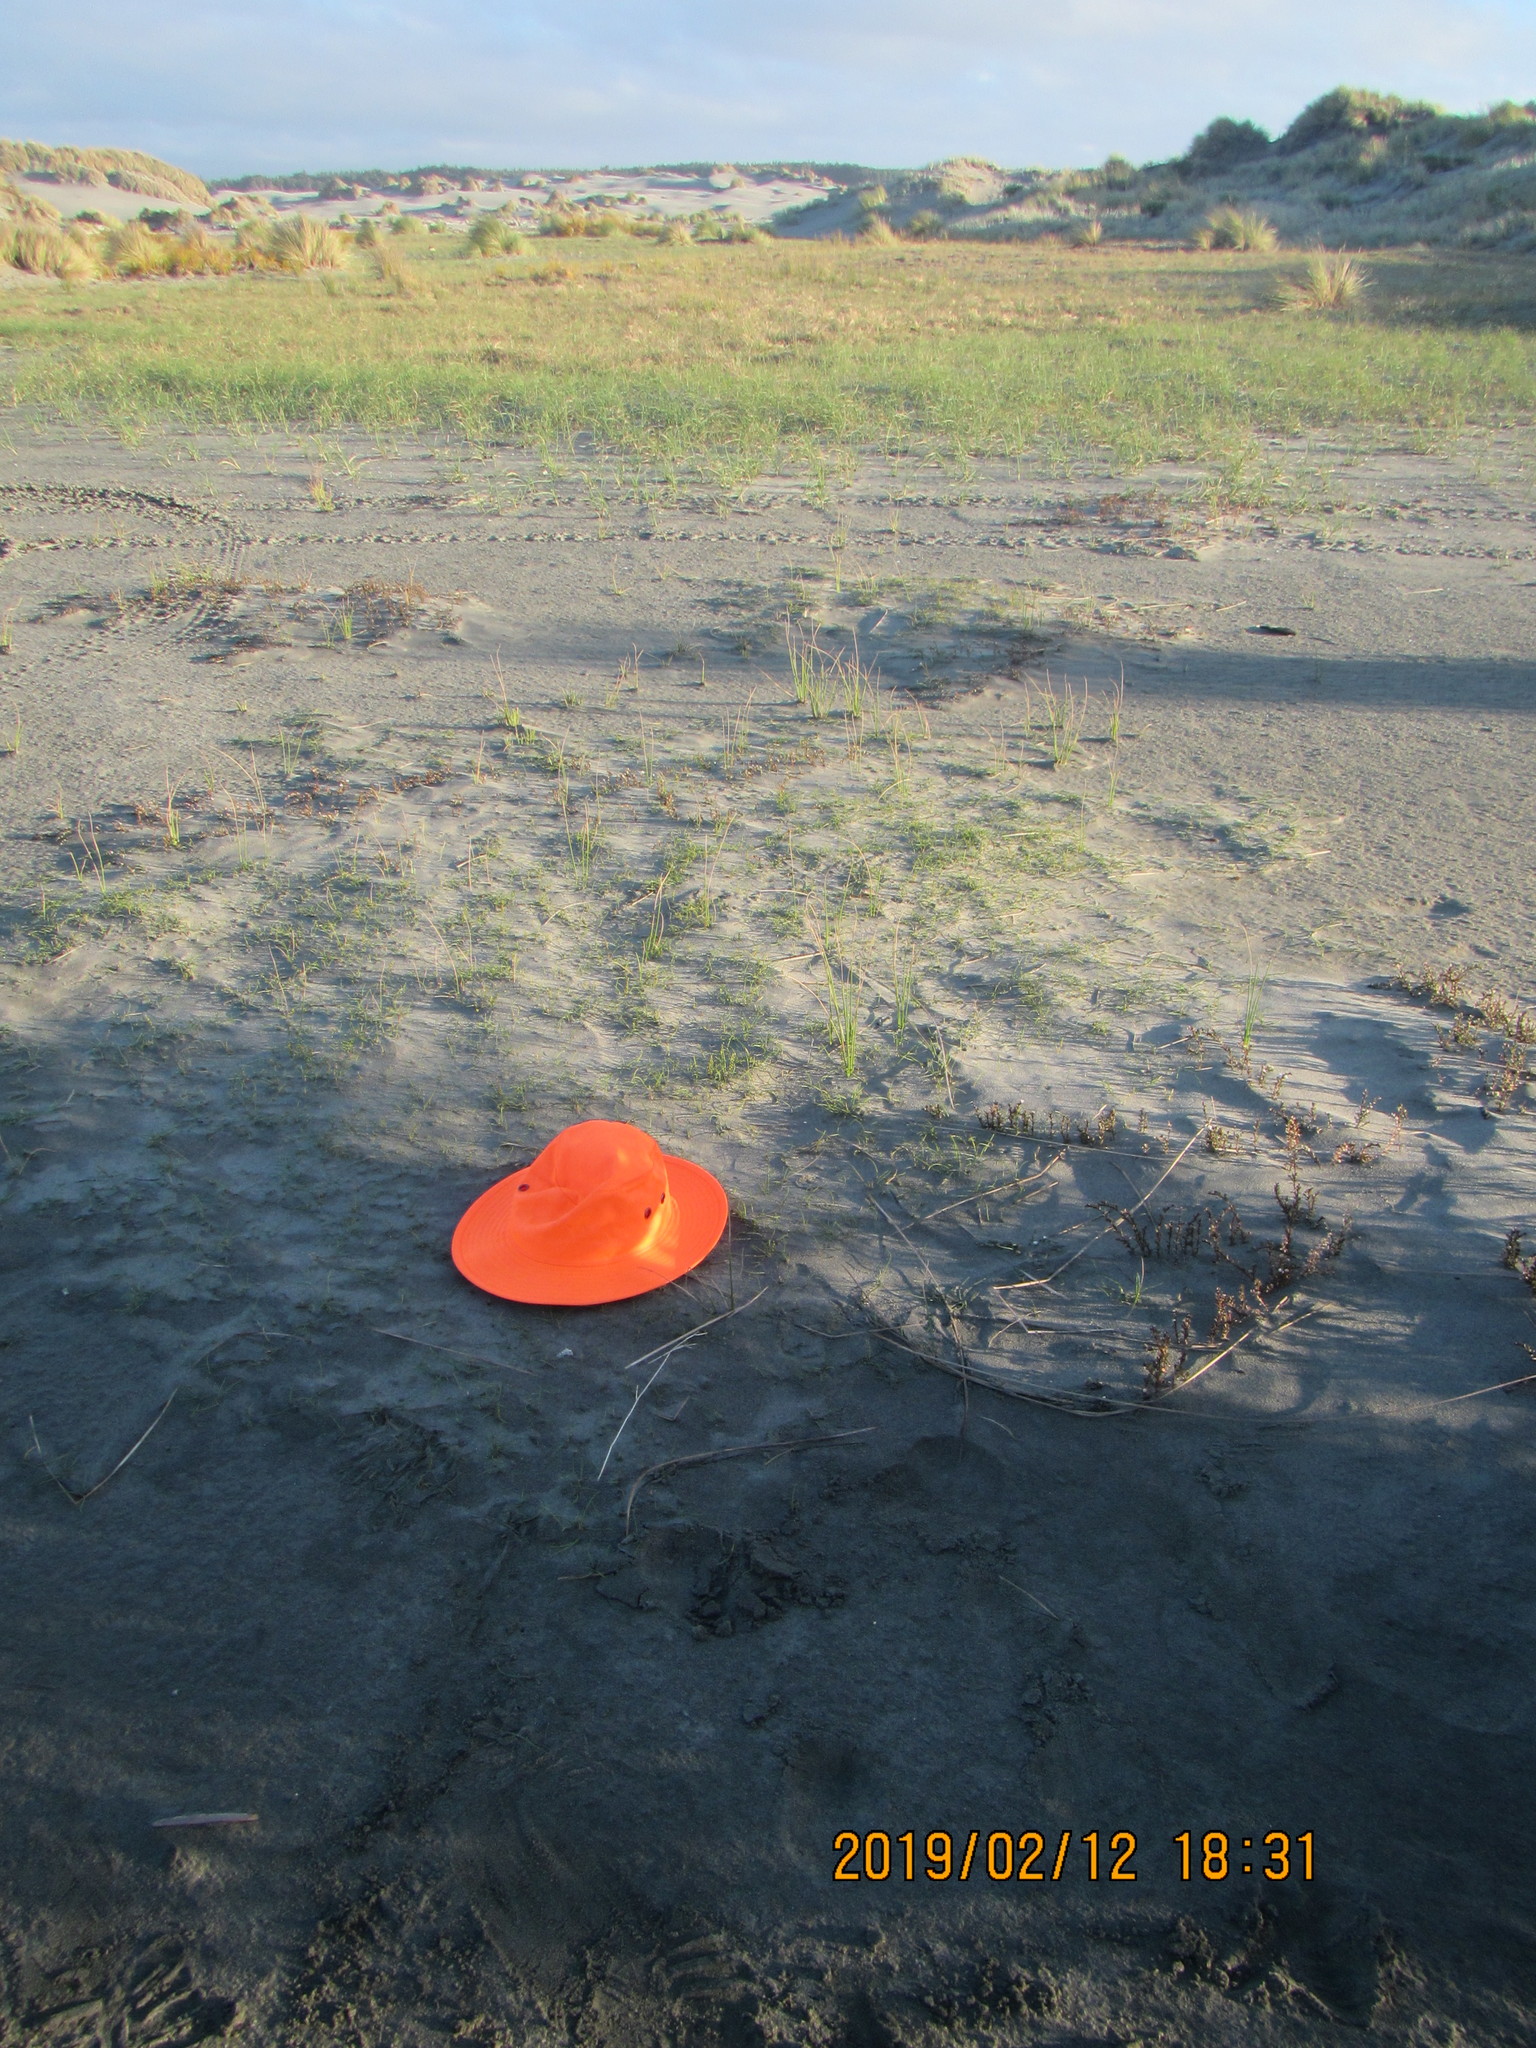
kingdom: Plantae
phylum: Tracheophyta
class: Liliopsida
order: Alismatales
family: Juncaginaceae
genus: Triglochin
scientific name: Triglochin striata
